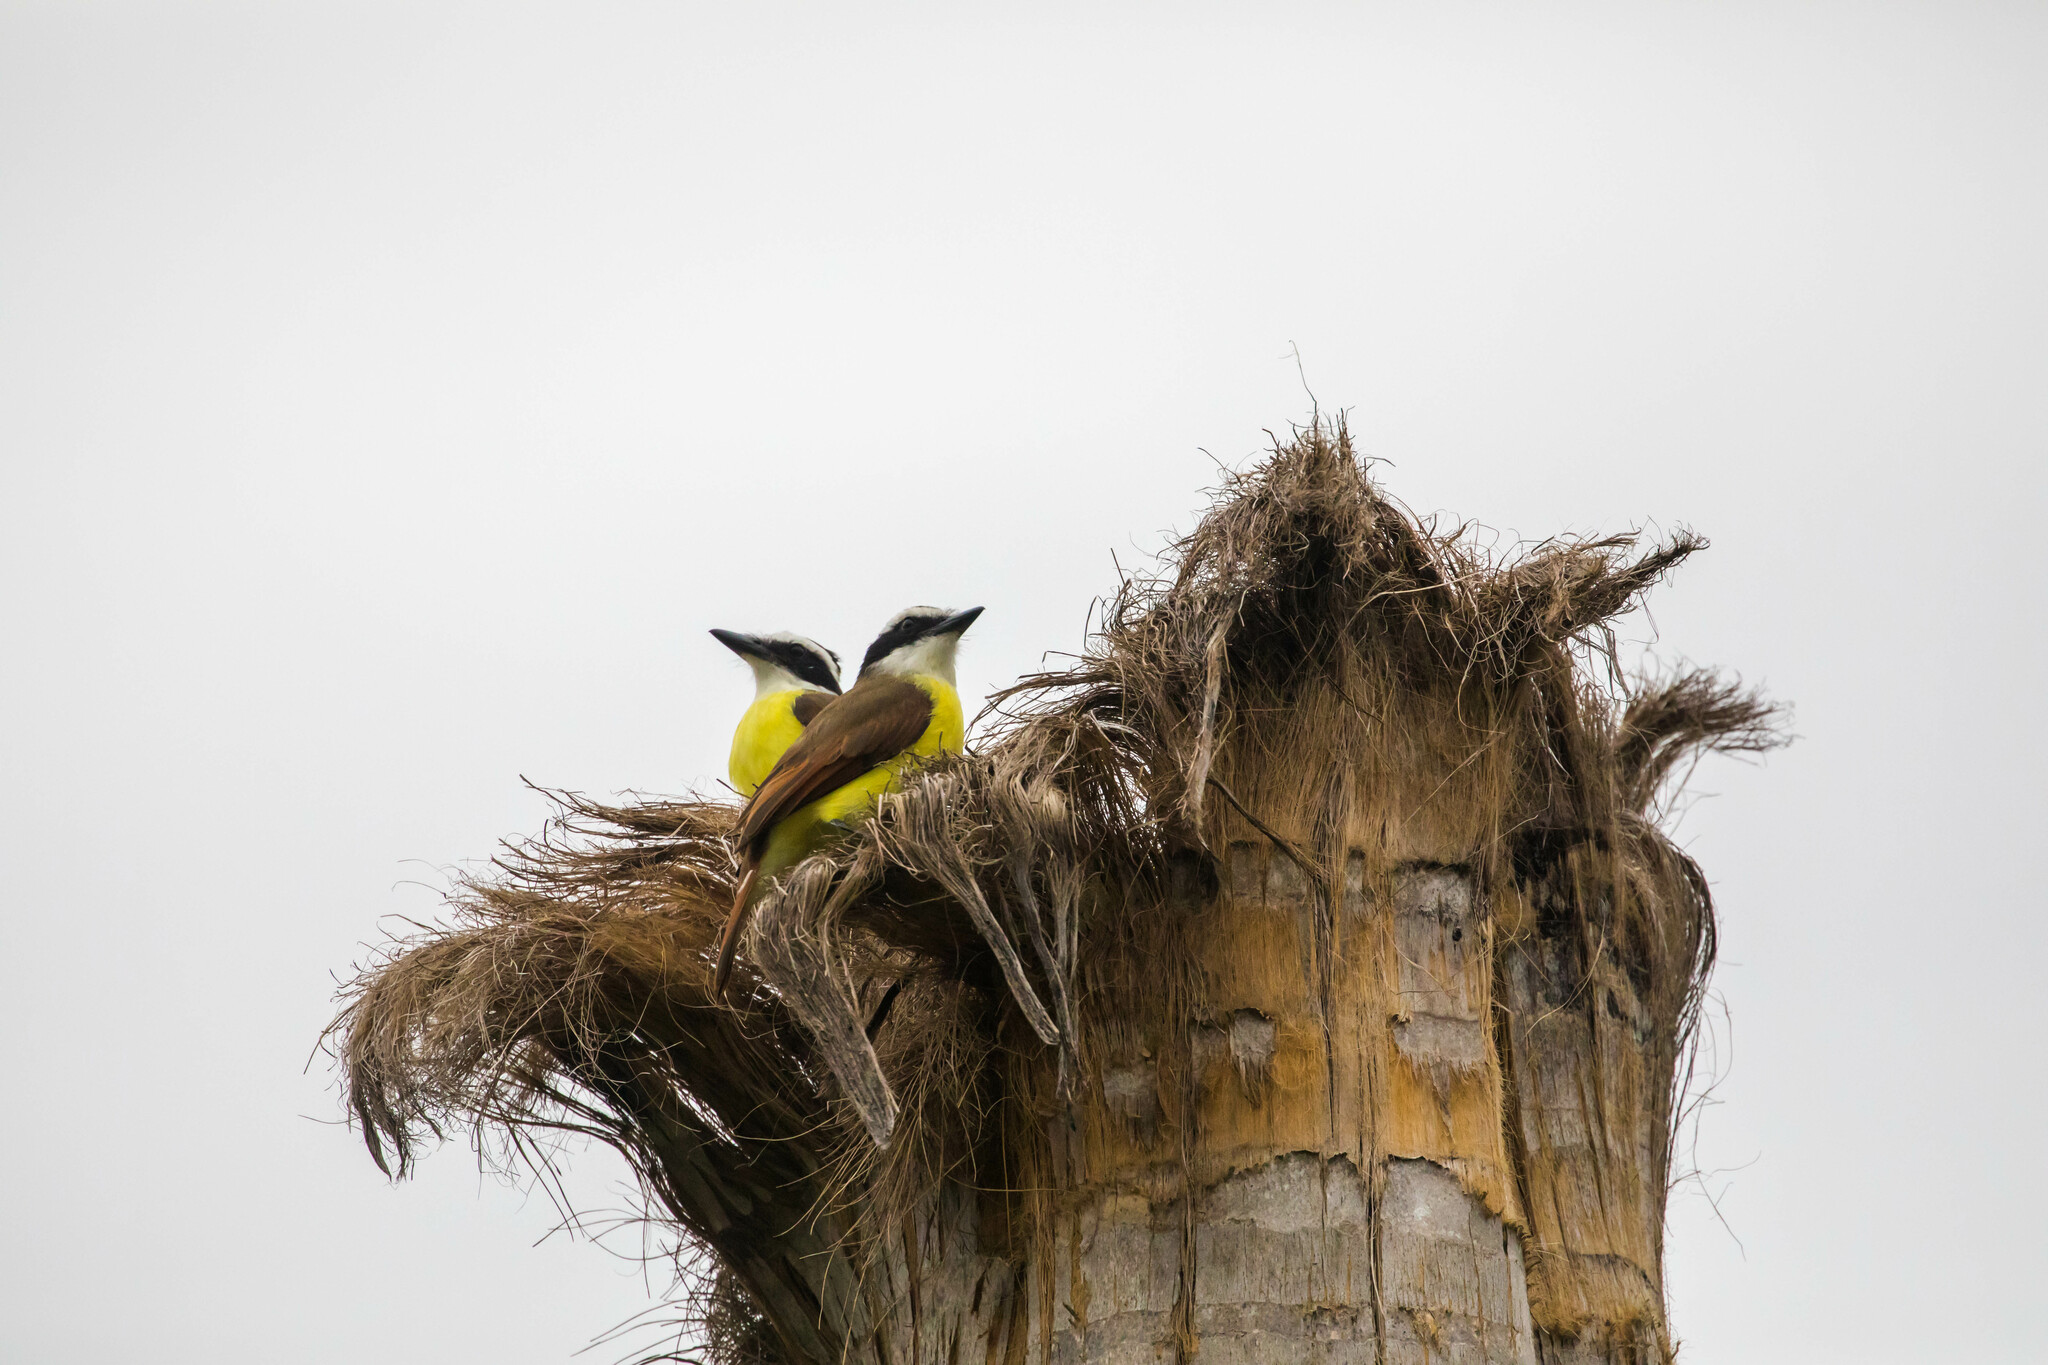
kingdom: Animalia
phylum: Chordata
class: Aves
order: Passeriformes
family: Tyrannidae
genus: Pitangus
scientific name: Pitangus sulphuratus
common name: Great kiskadee
